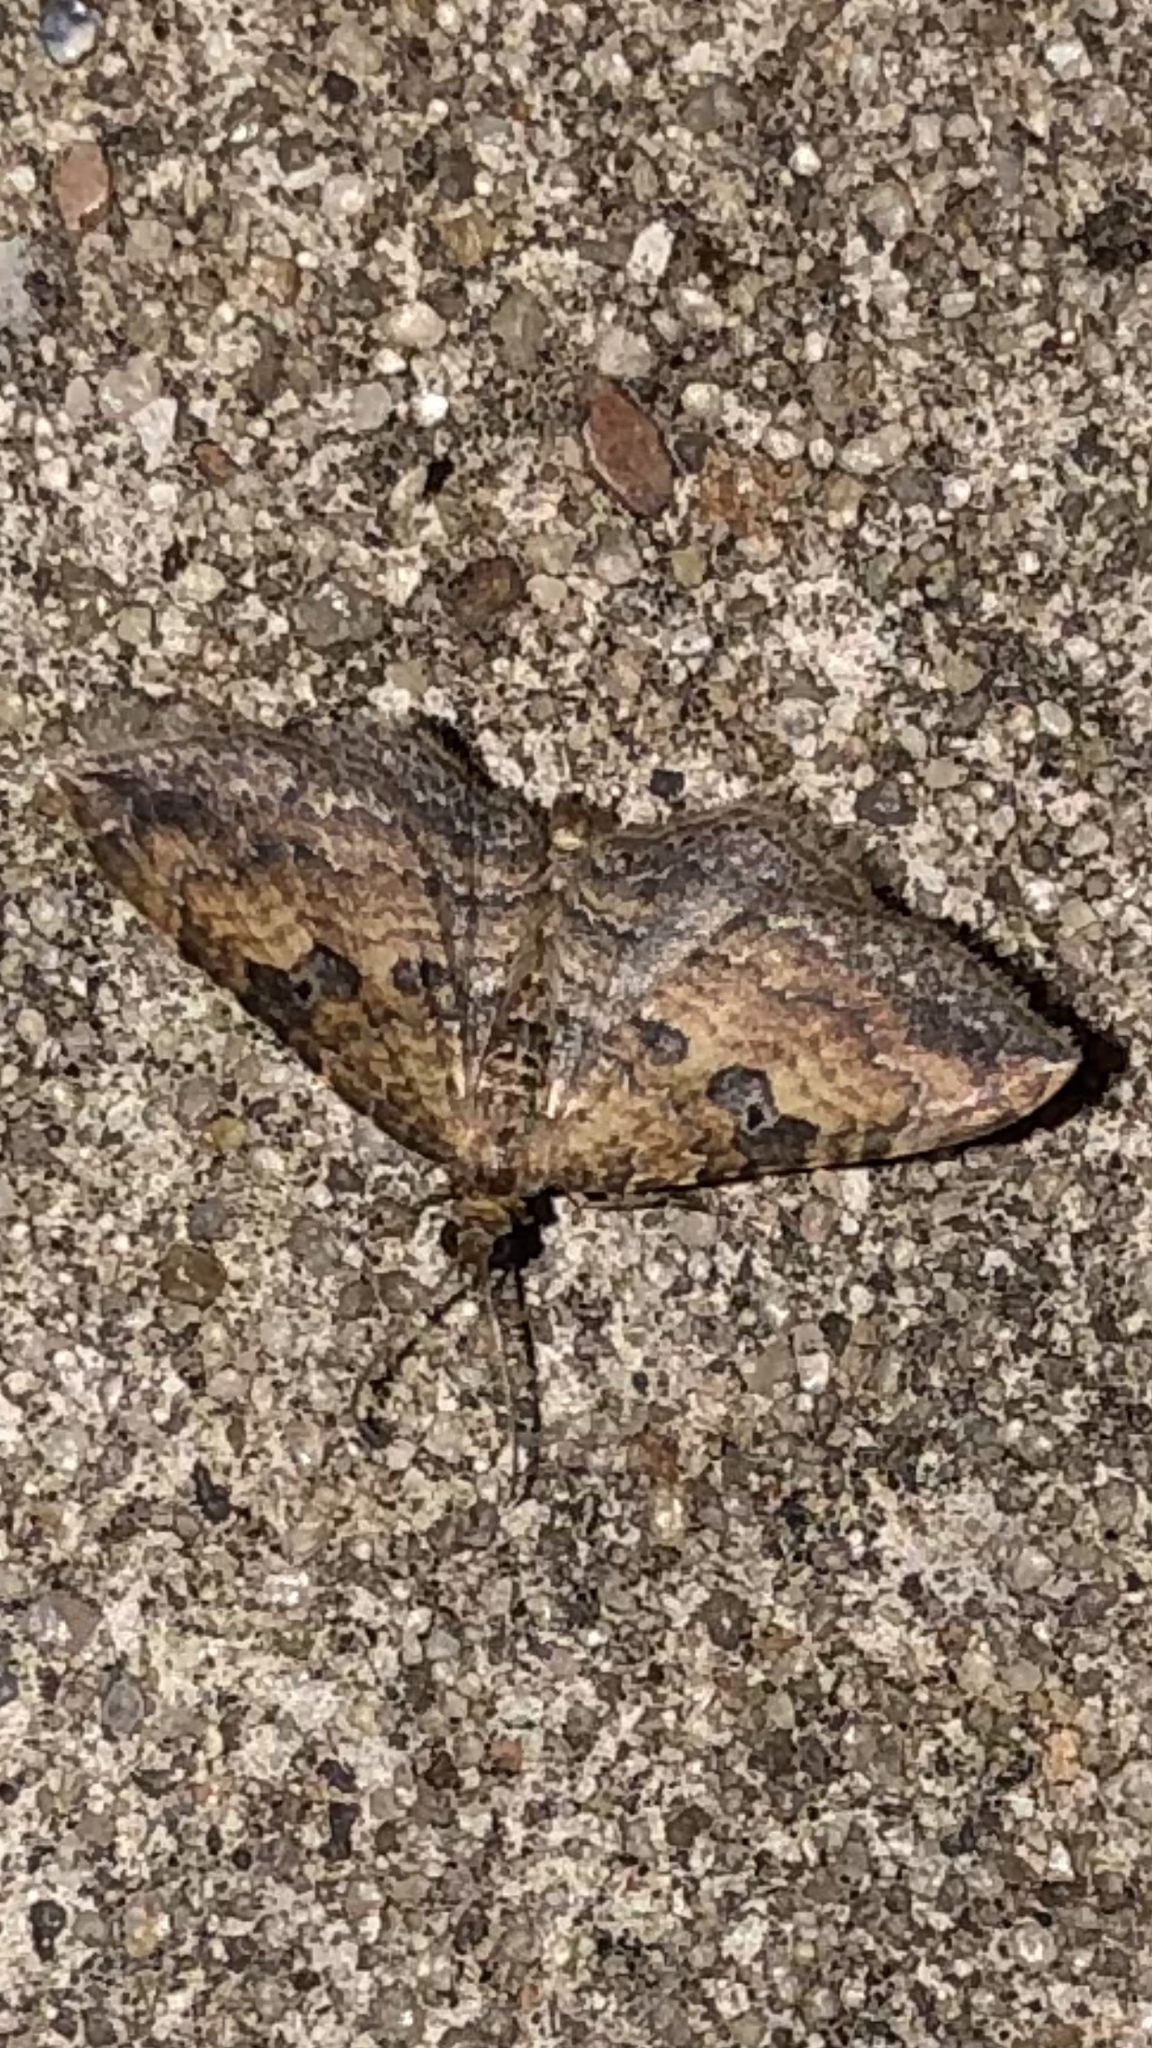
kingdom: Animalia
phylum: Arthropoda
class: Insecta
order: Lepidoptera
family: Geometridae
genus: Orthonama
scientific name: Orthonama obstipata
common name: The gem
